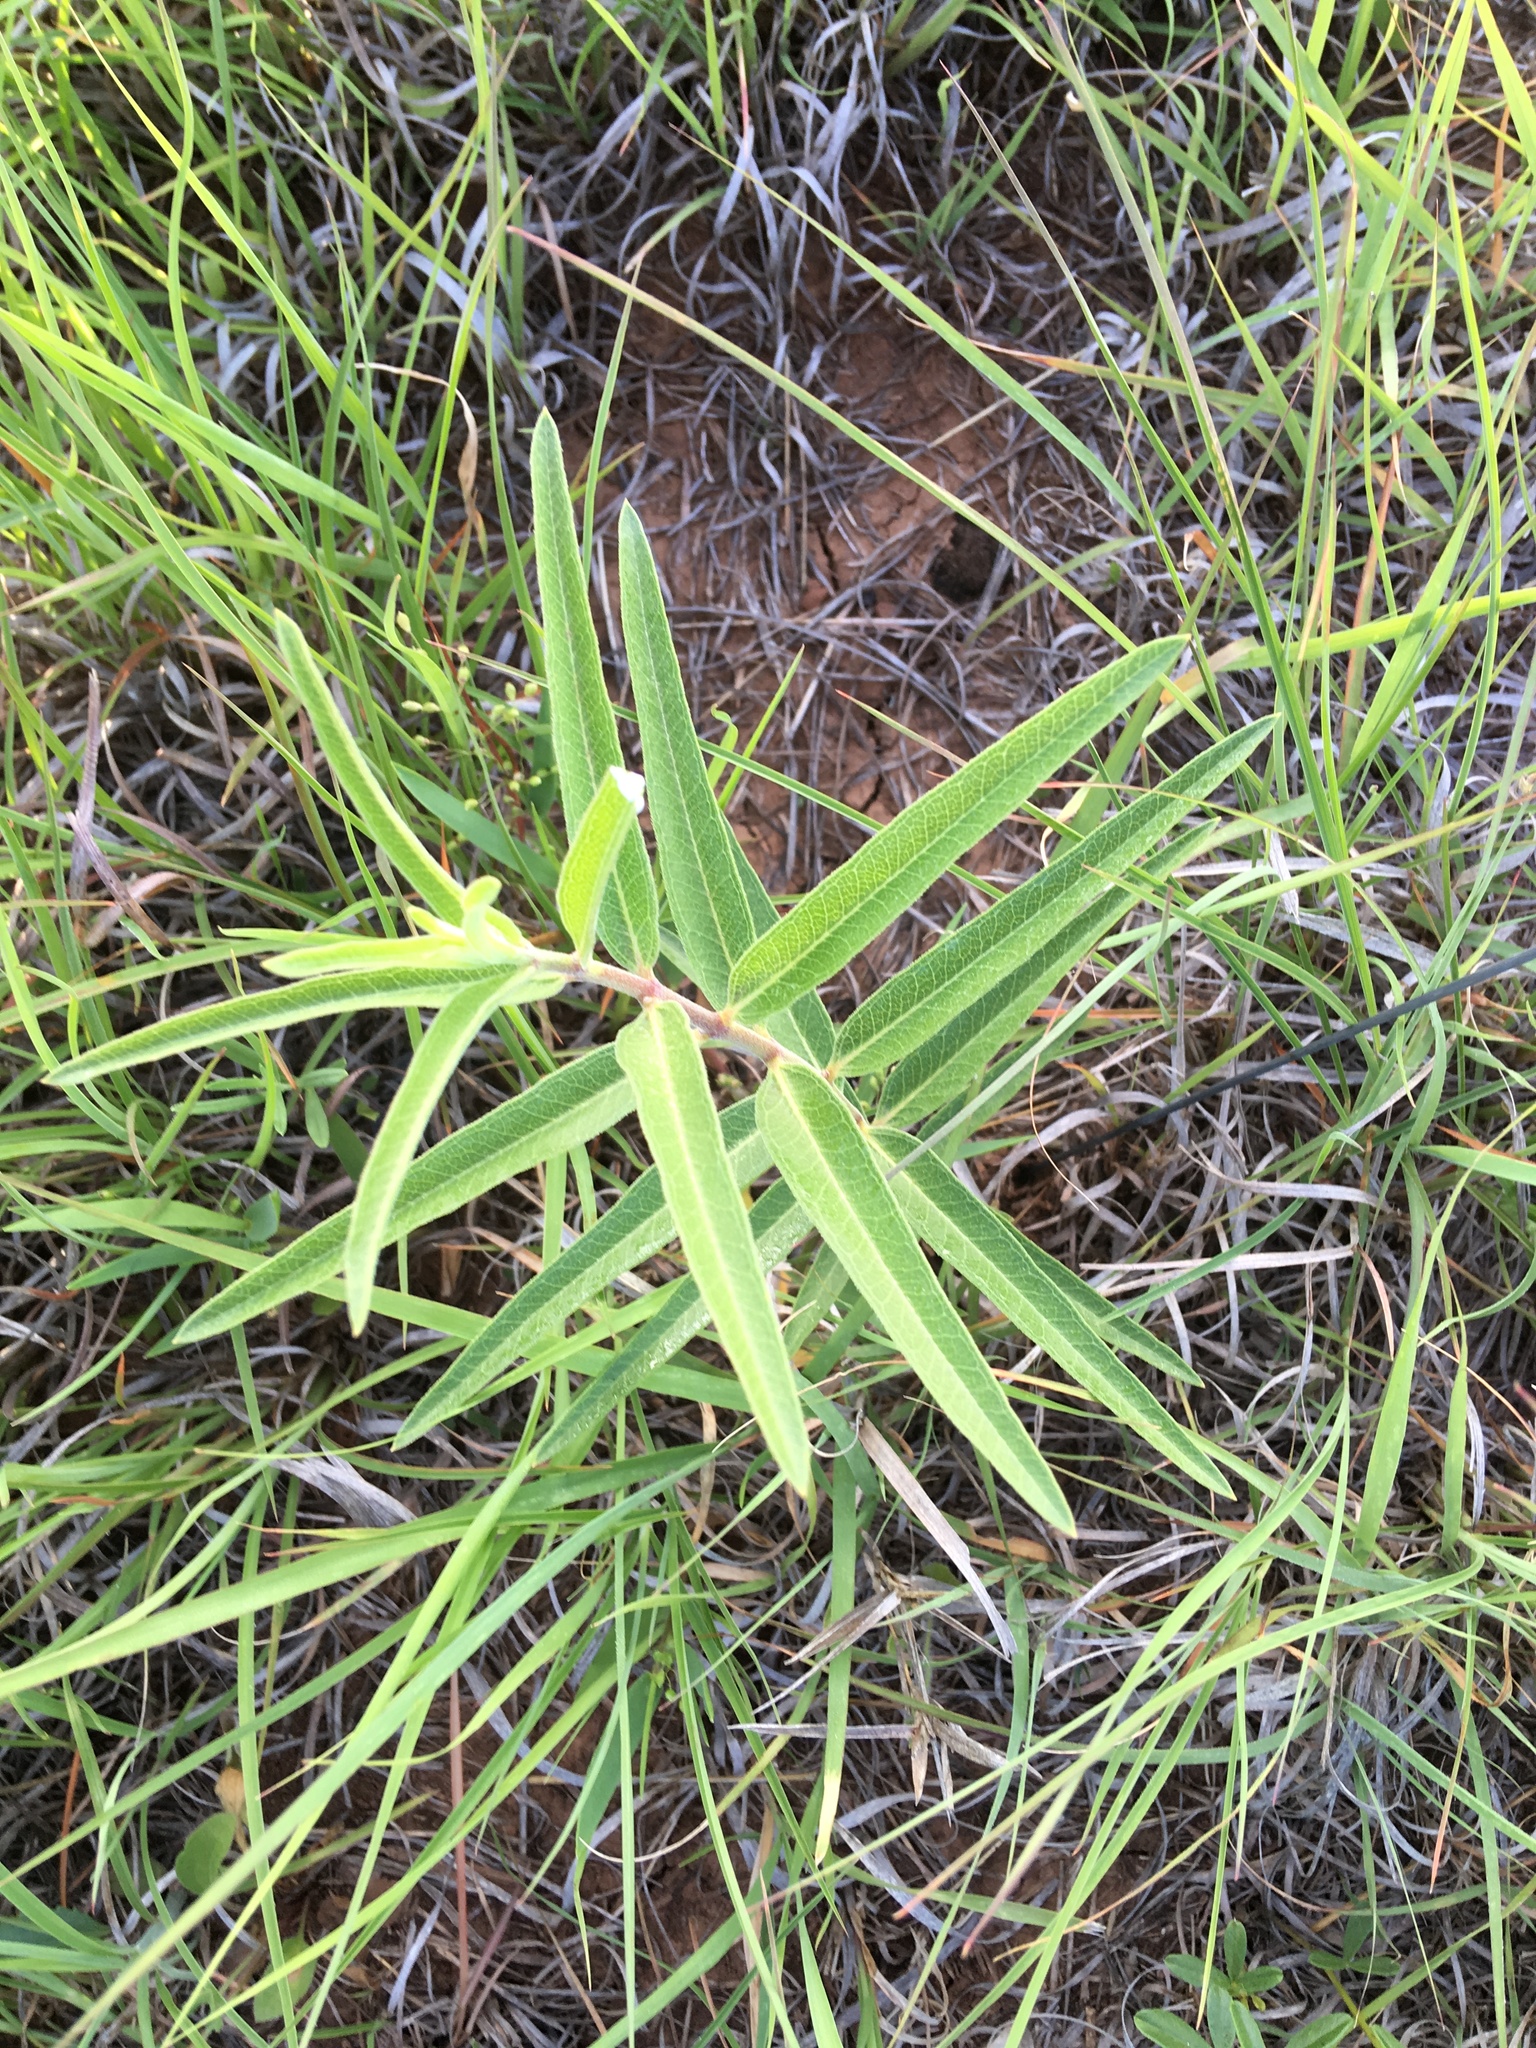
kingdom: Plantae
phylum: Tracheophyta
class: Magnoliopsida
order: Gentianales
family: Apocynaceae
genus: Asclepias
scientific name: Asclepias viridiflora
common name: Green comet milkweed
